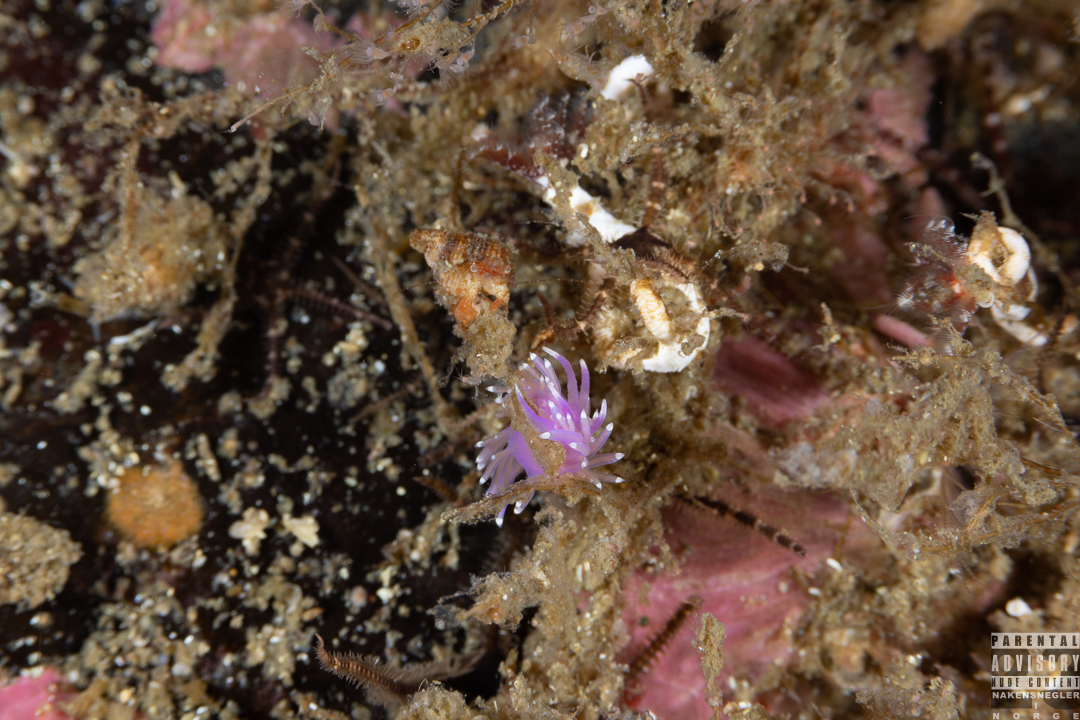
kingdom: Animalia
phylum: Mollusca
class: Gastropoda
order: Nudibranchia
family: Flabellinidae
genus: Edmundsella
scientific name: Edmundsella pedata
